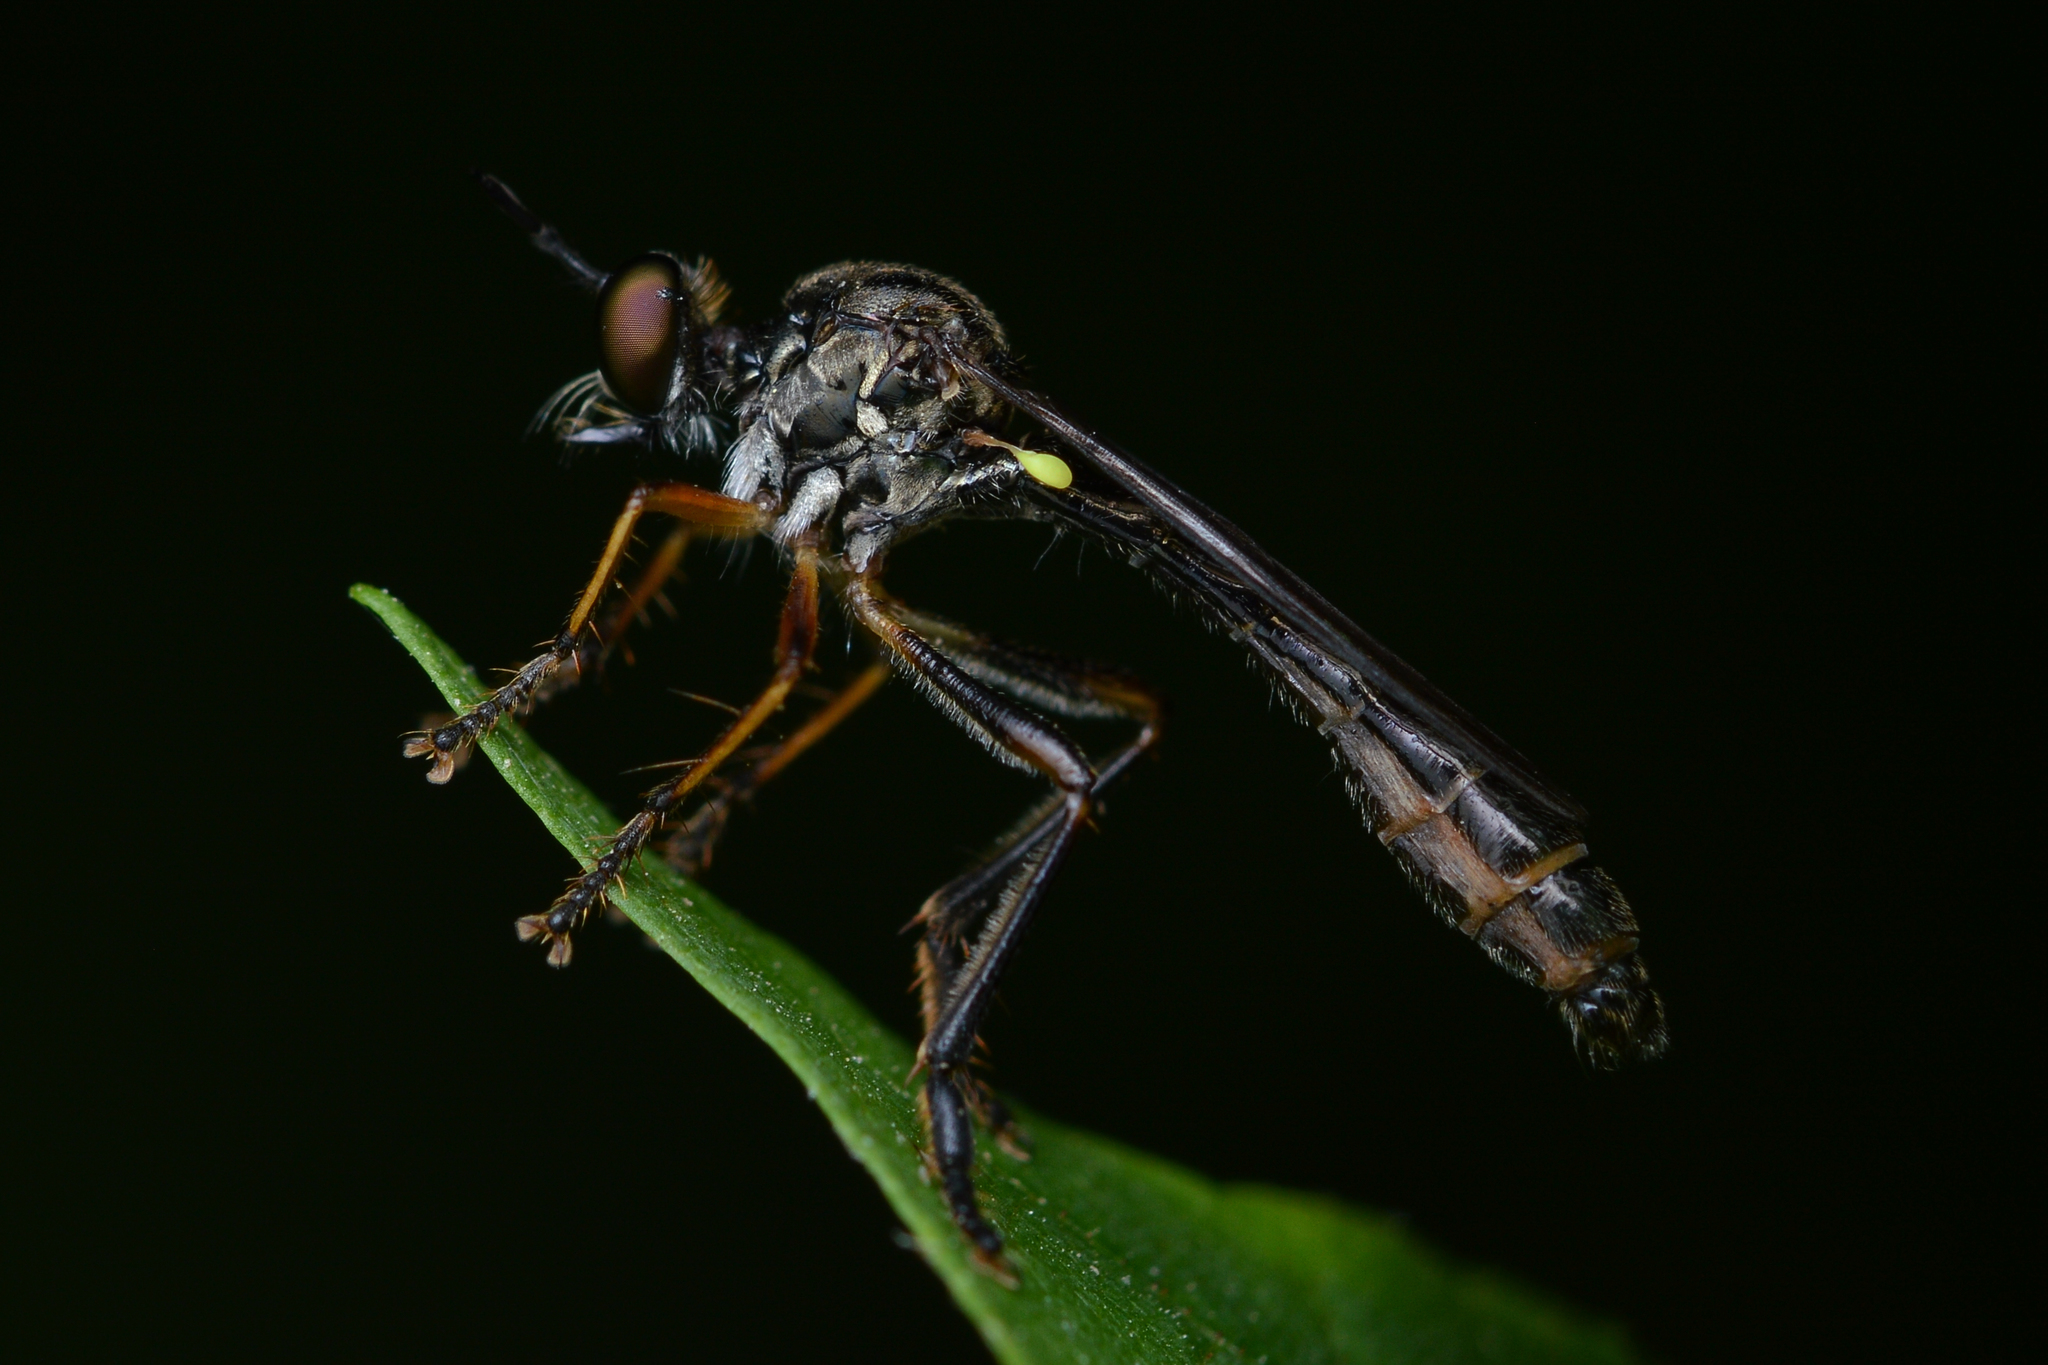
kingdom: Animalia
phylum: Arthropoda
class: Insecta
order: Diptera
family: Asilidae
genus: Dioctria
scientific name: Dioctria hyalipennis
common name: Stripe-legged robberfly
